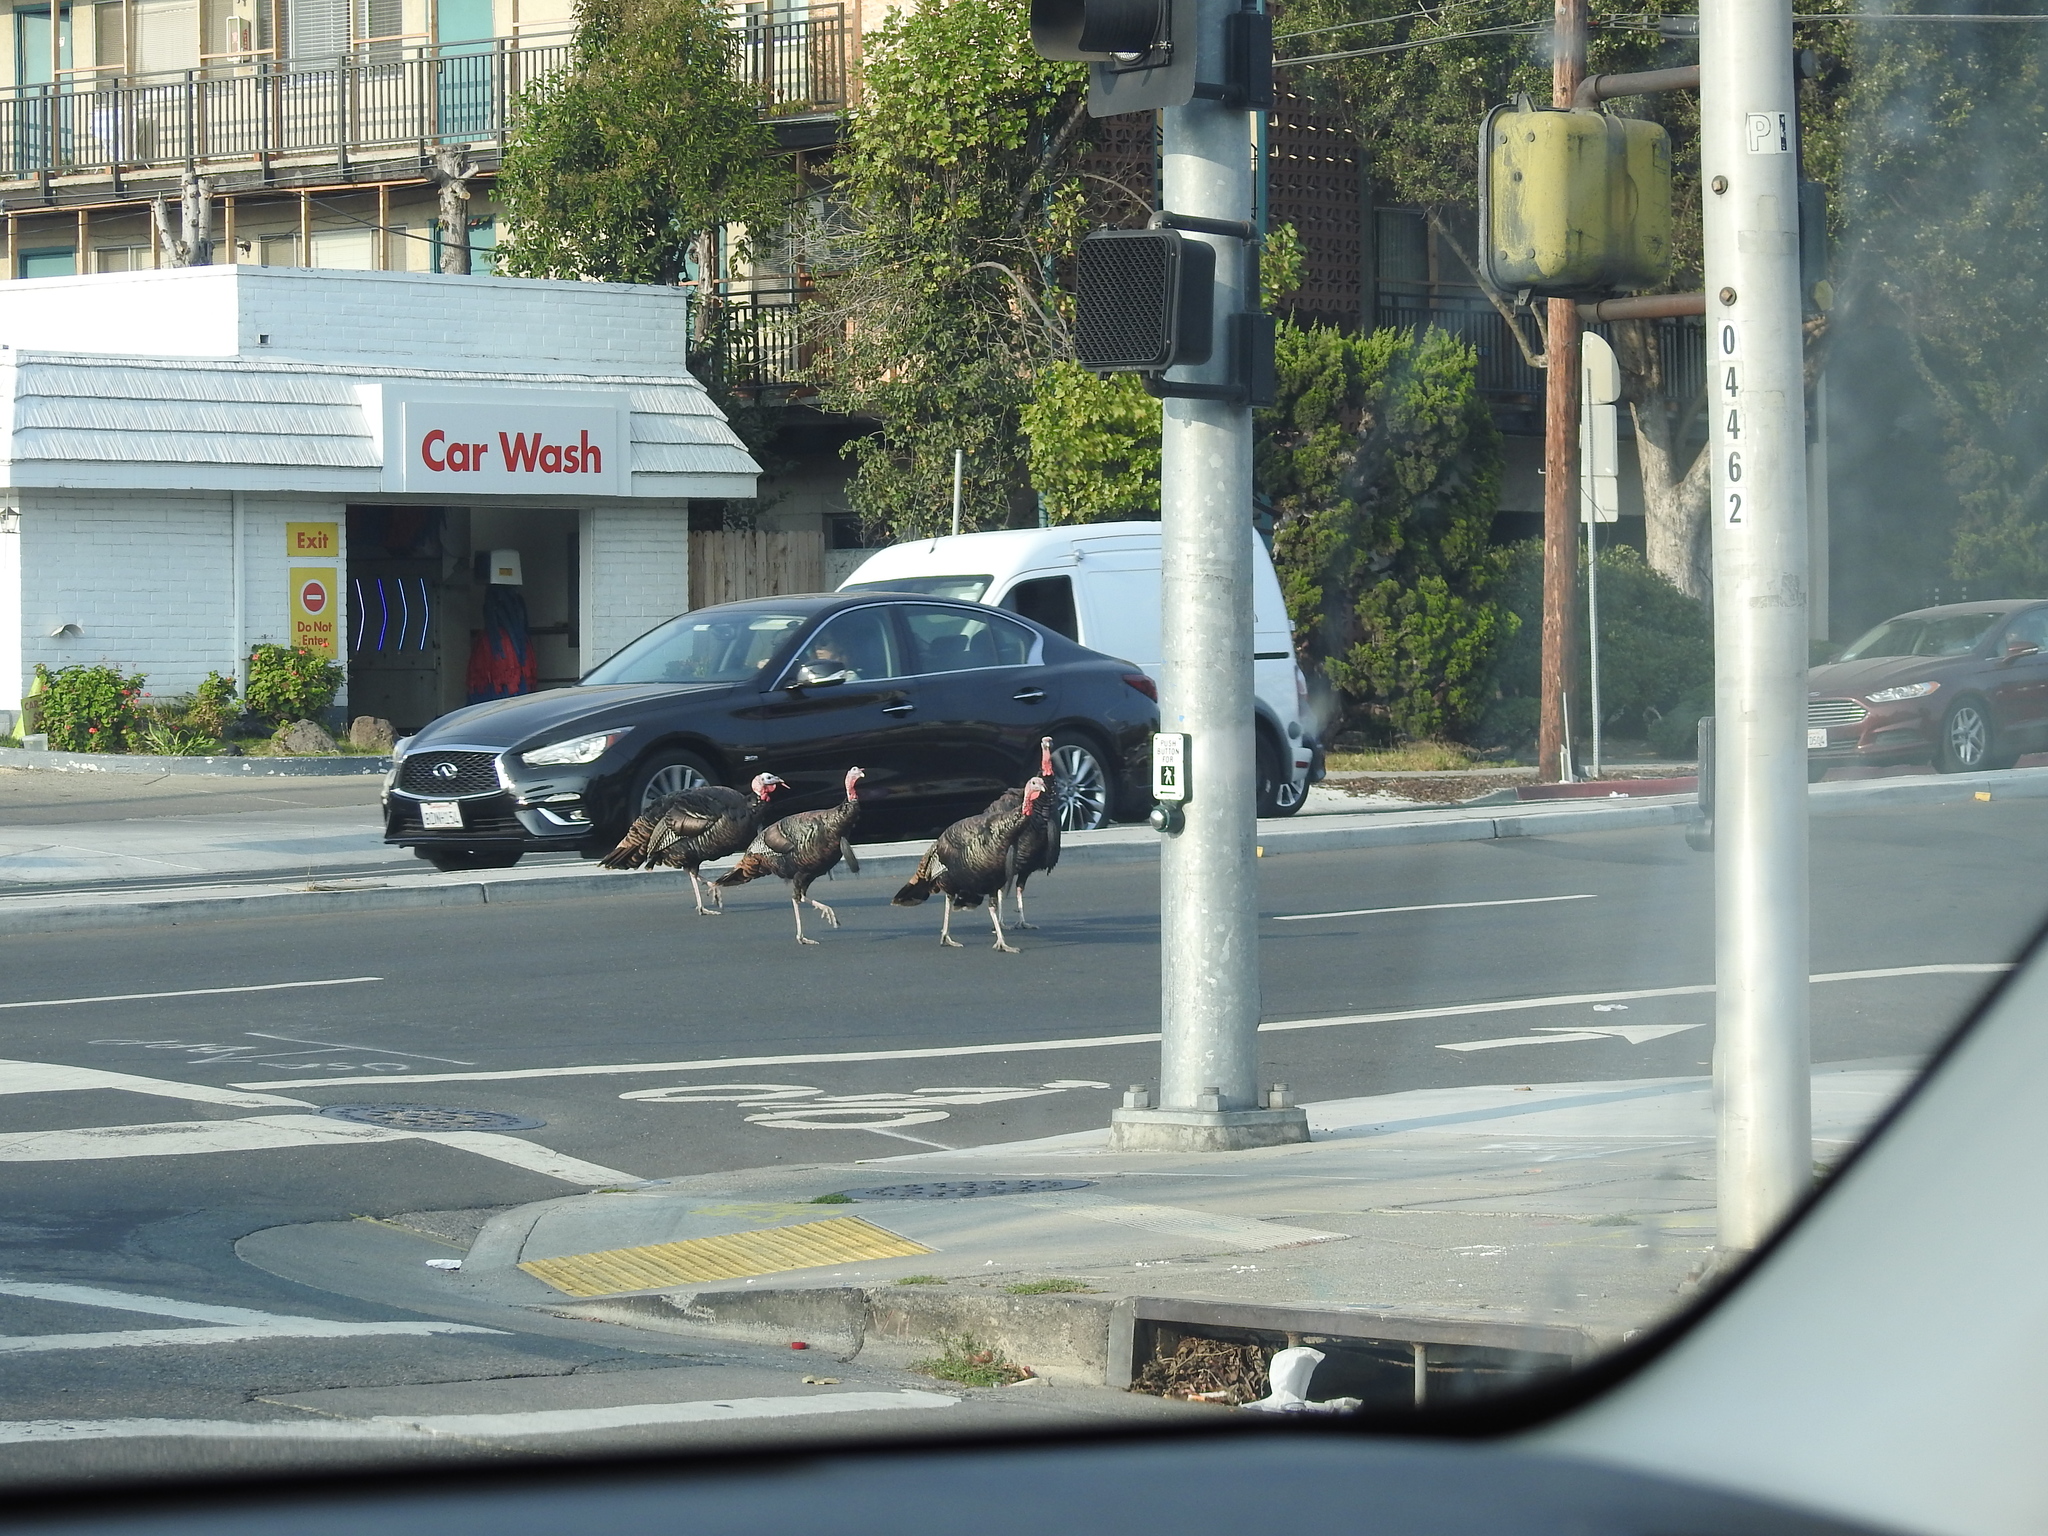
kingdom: Animalia
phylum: Chordata
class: Aves
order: Galliformes
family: Phasianidae
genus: Meleagris
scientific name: Meleagris gallopavo
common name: Wild turkey
